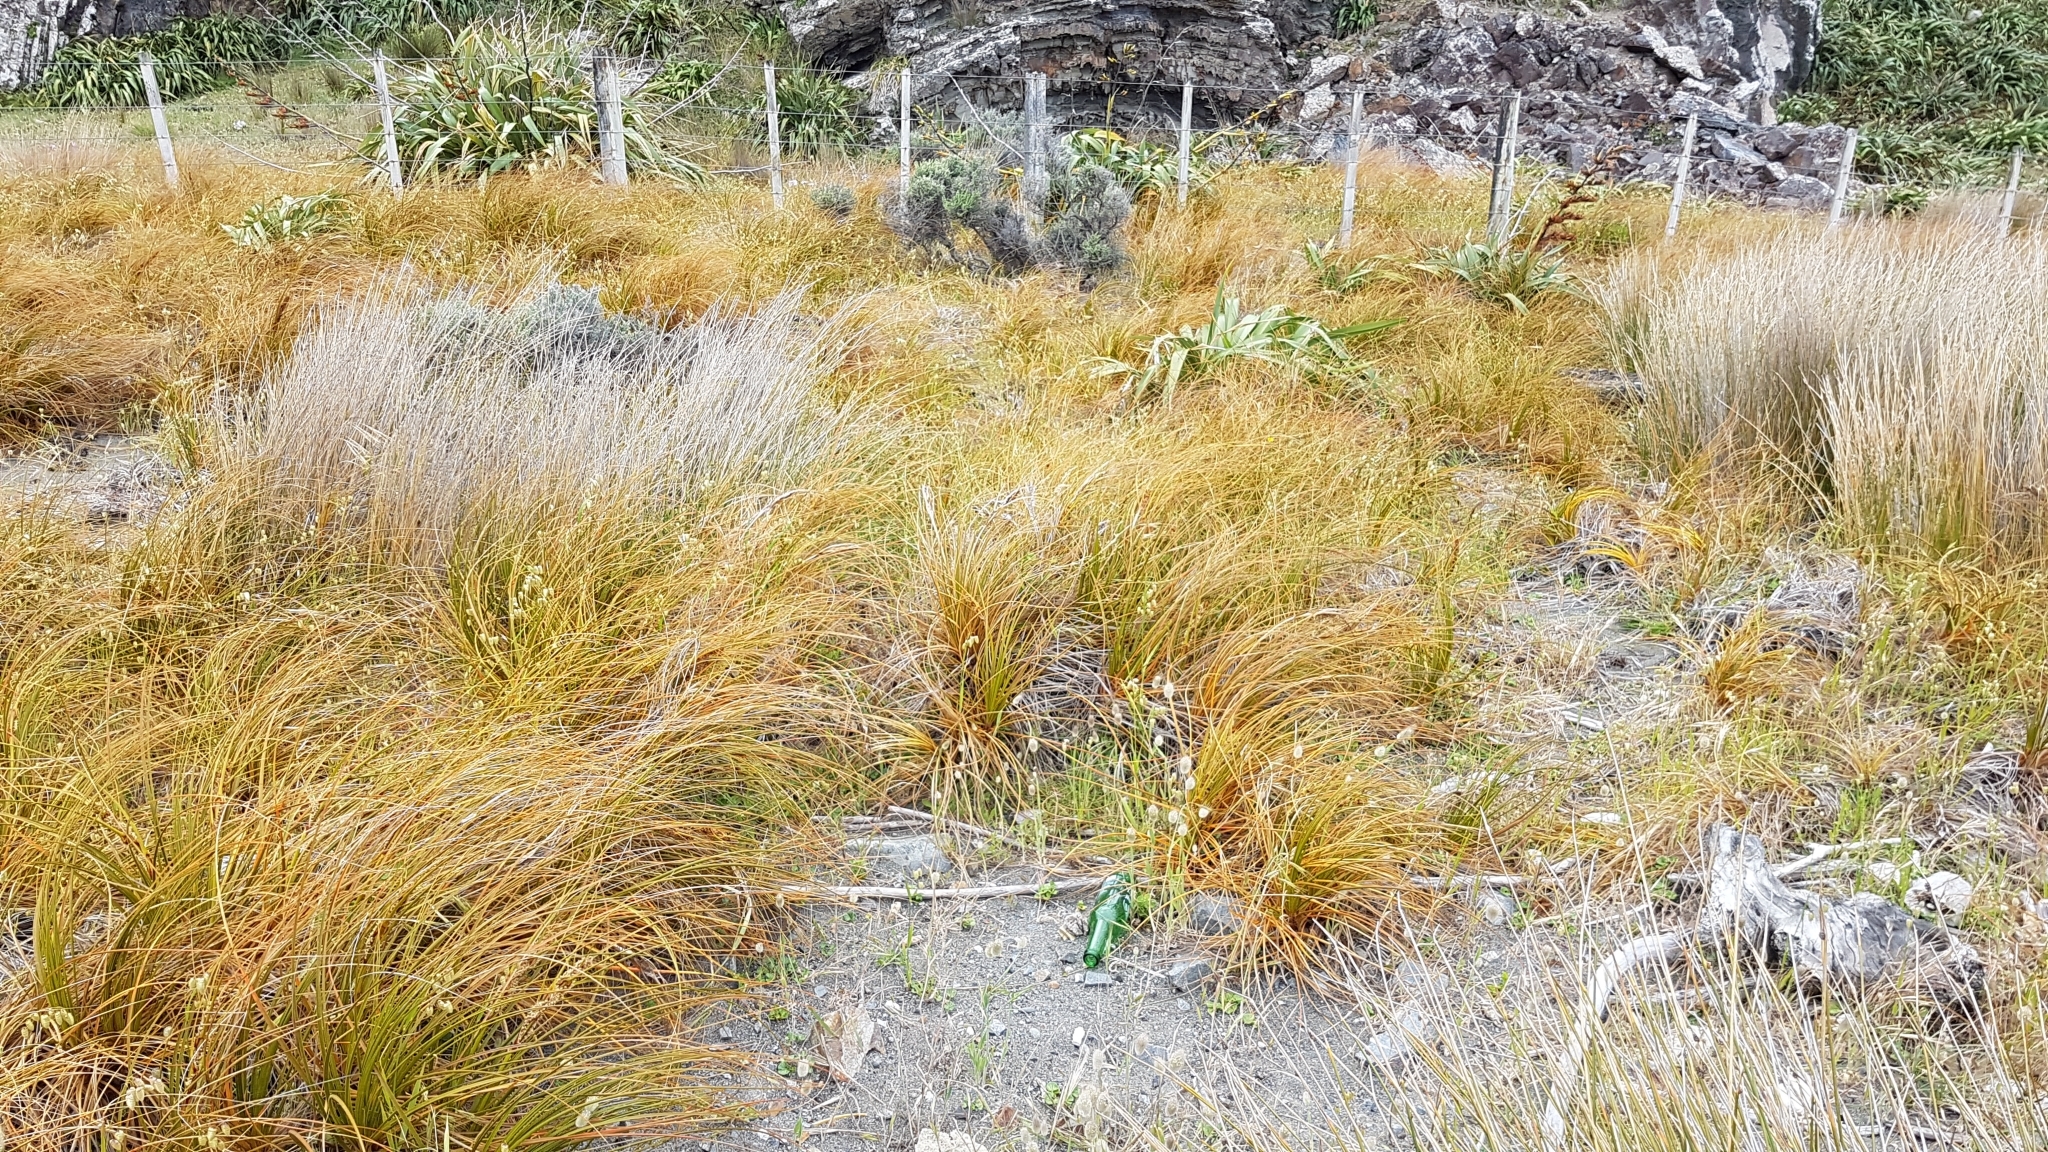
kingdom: Plantae
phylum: Tracheophyta
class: Liliopsida
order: Poales
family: Cyperaceae
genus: Ficinia
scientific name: Ficinia spiralis
